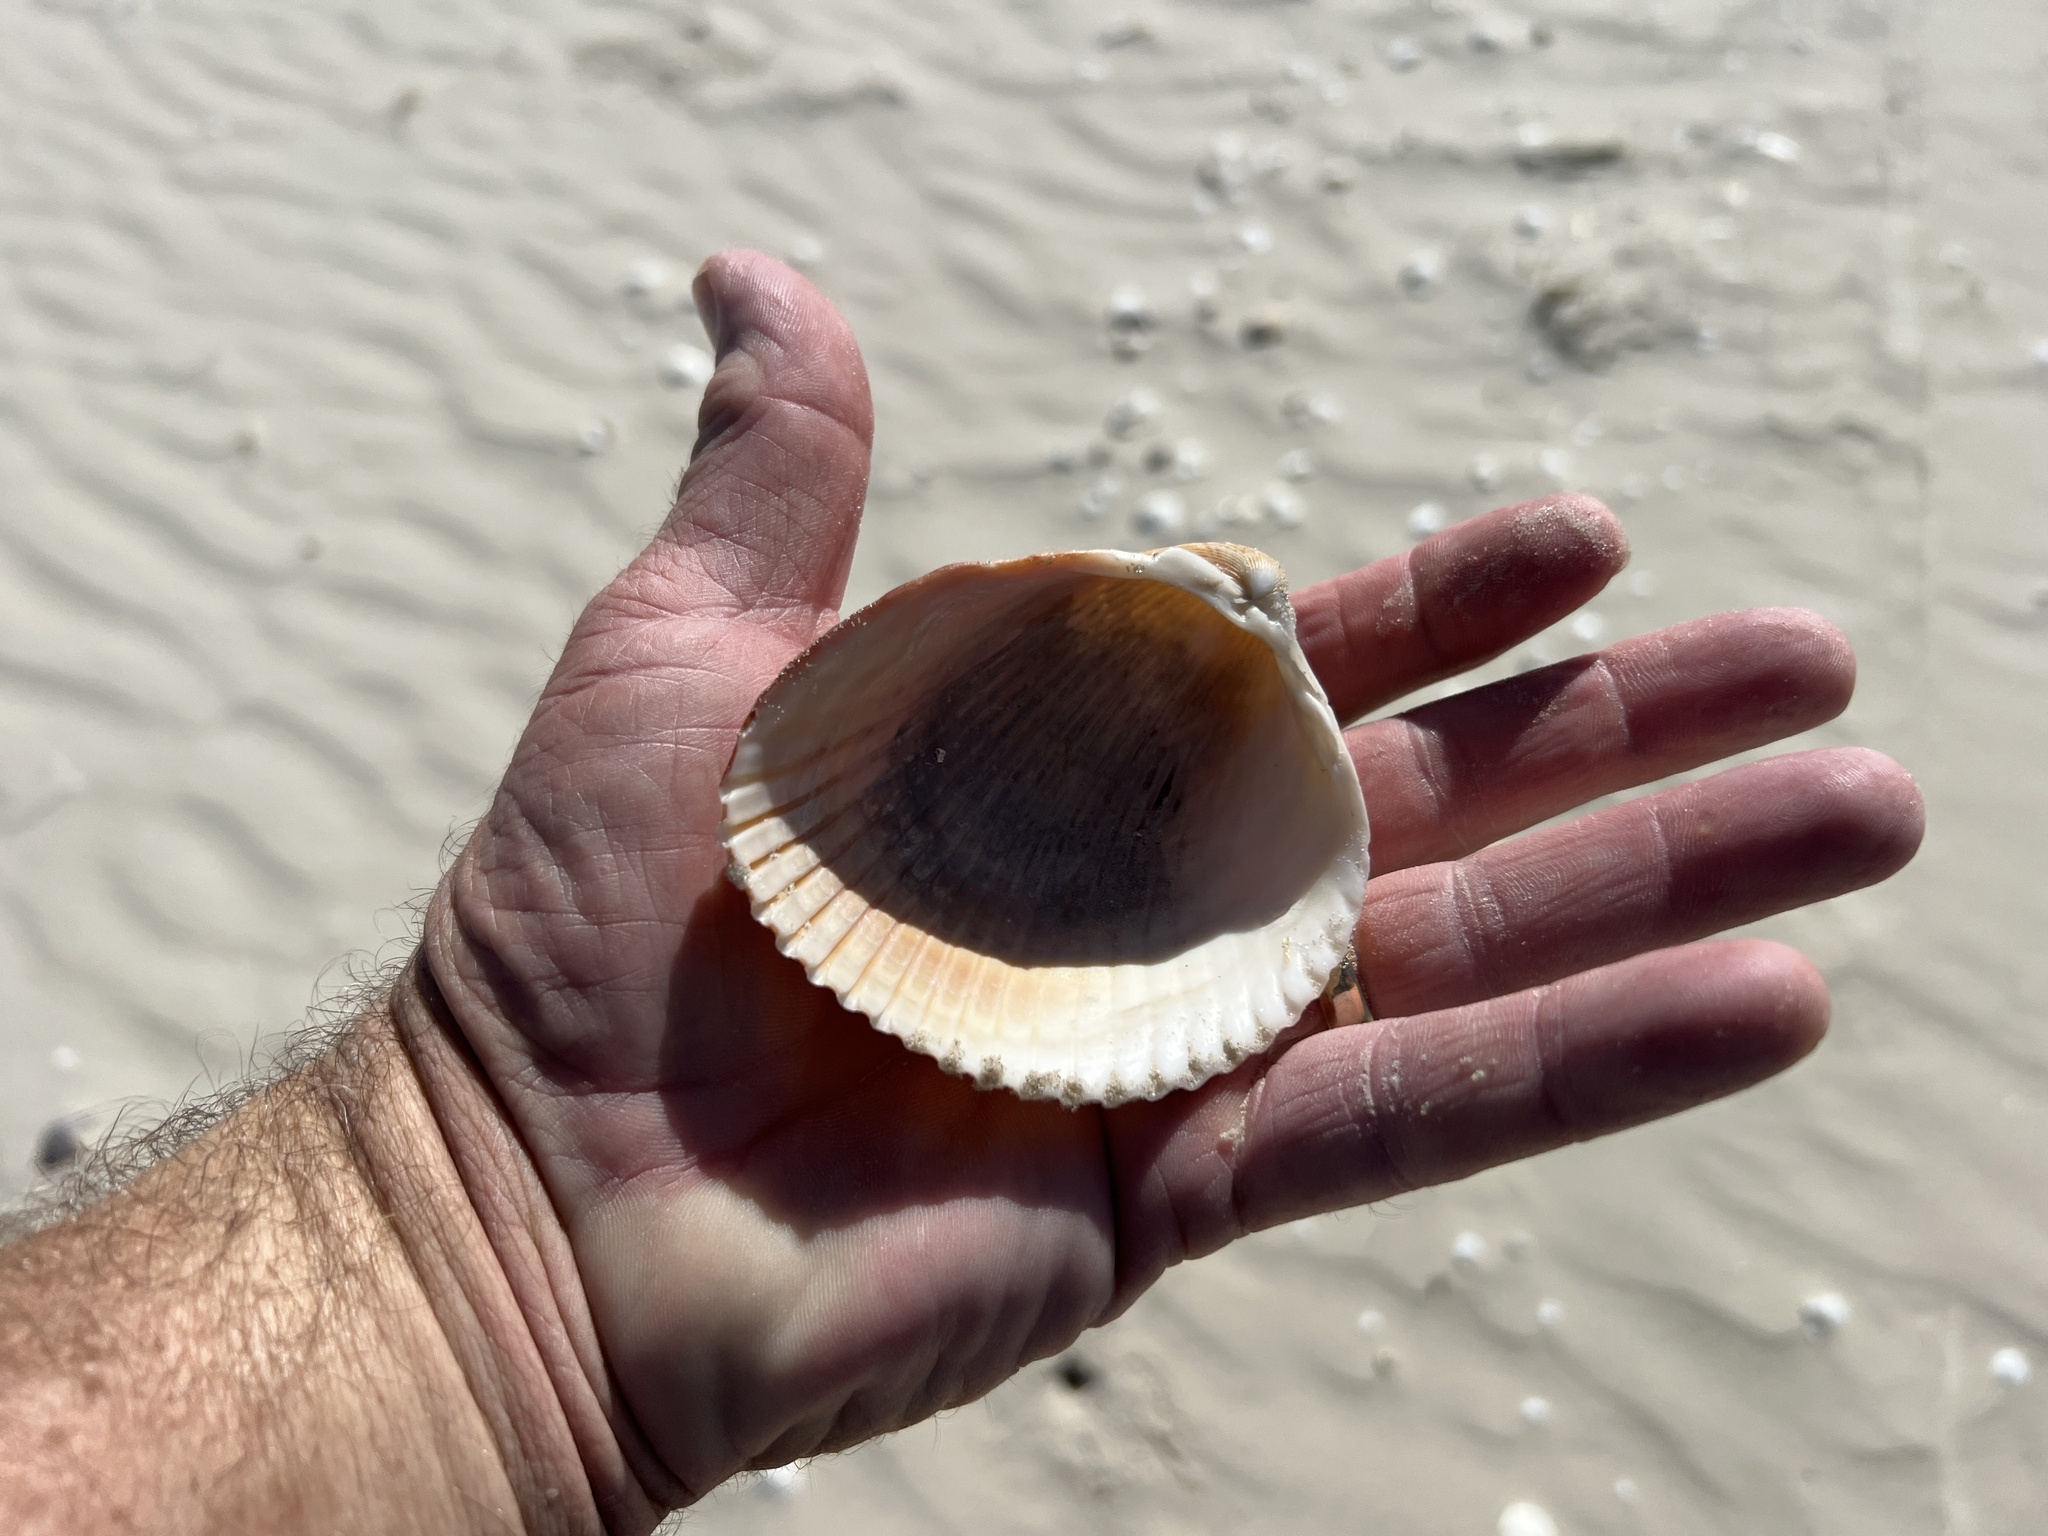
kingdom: Animalia
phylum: Mollusca
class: Bivalvia
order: Cardiida
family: Cardiidae
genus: Dinocardium
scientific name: Dinocardium robustum
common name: Atlantic giant cockle
